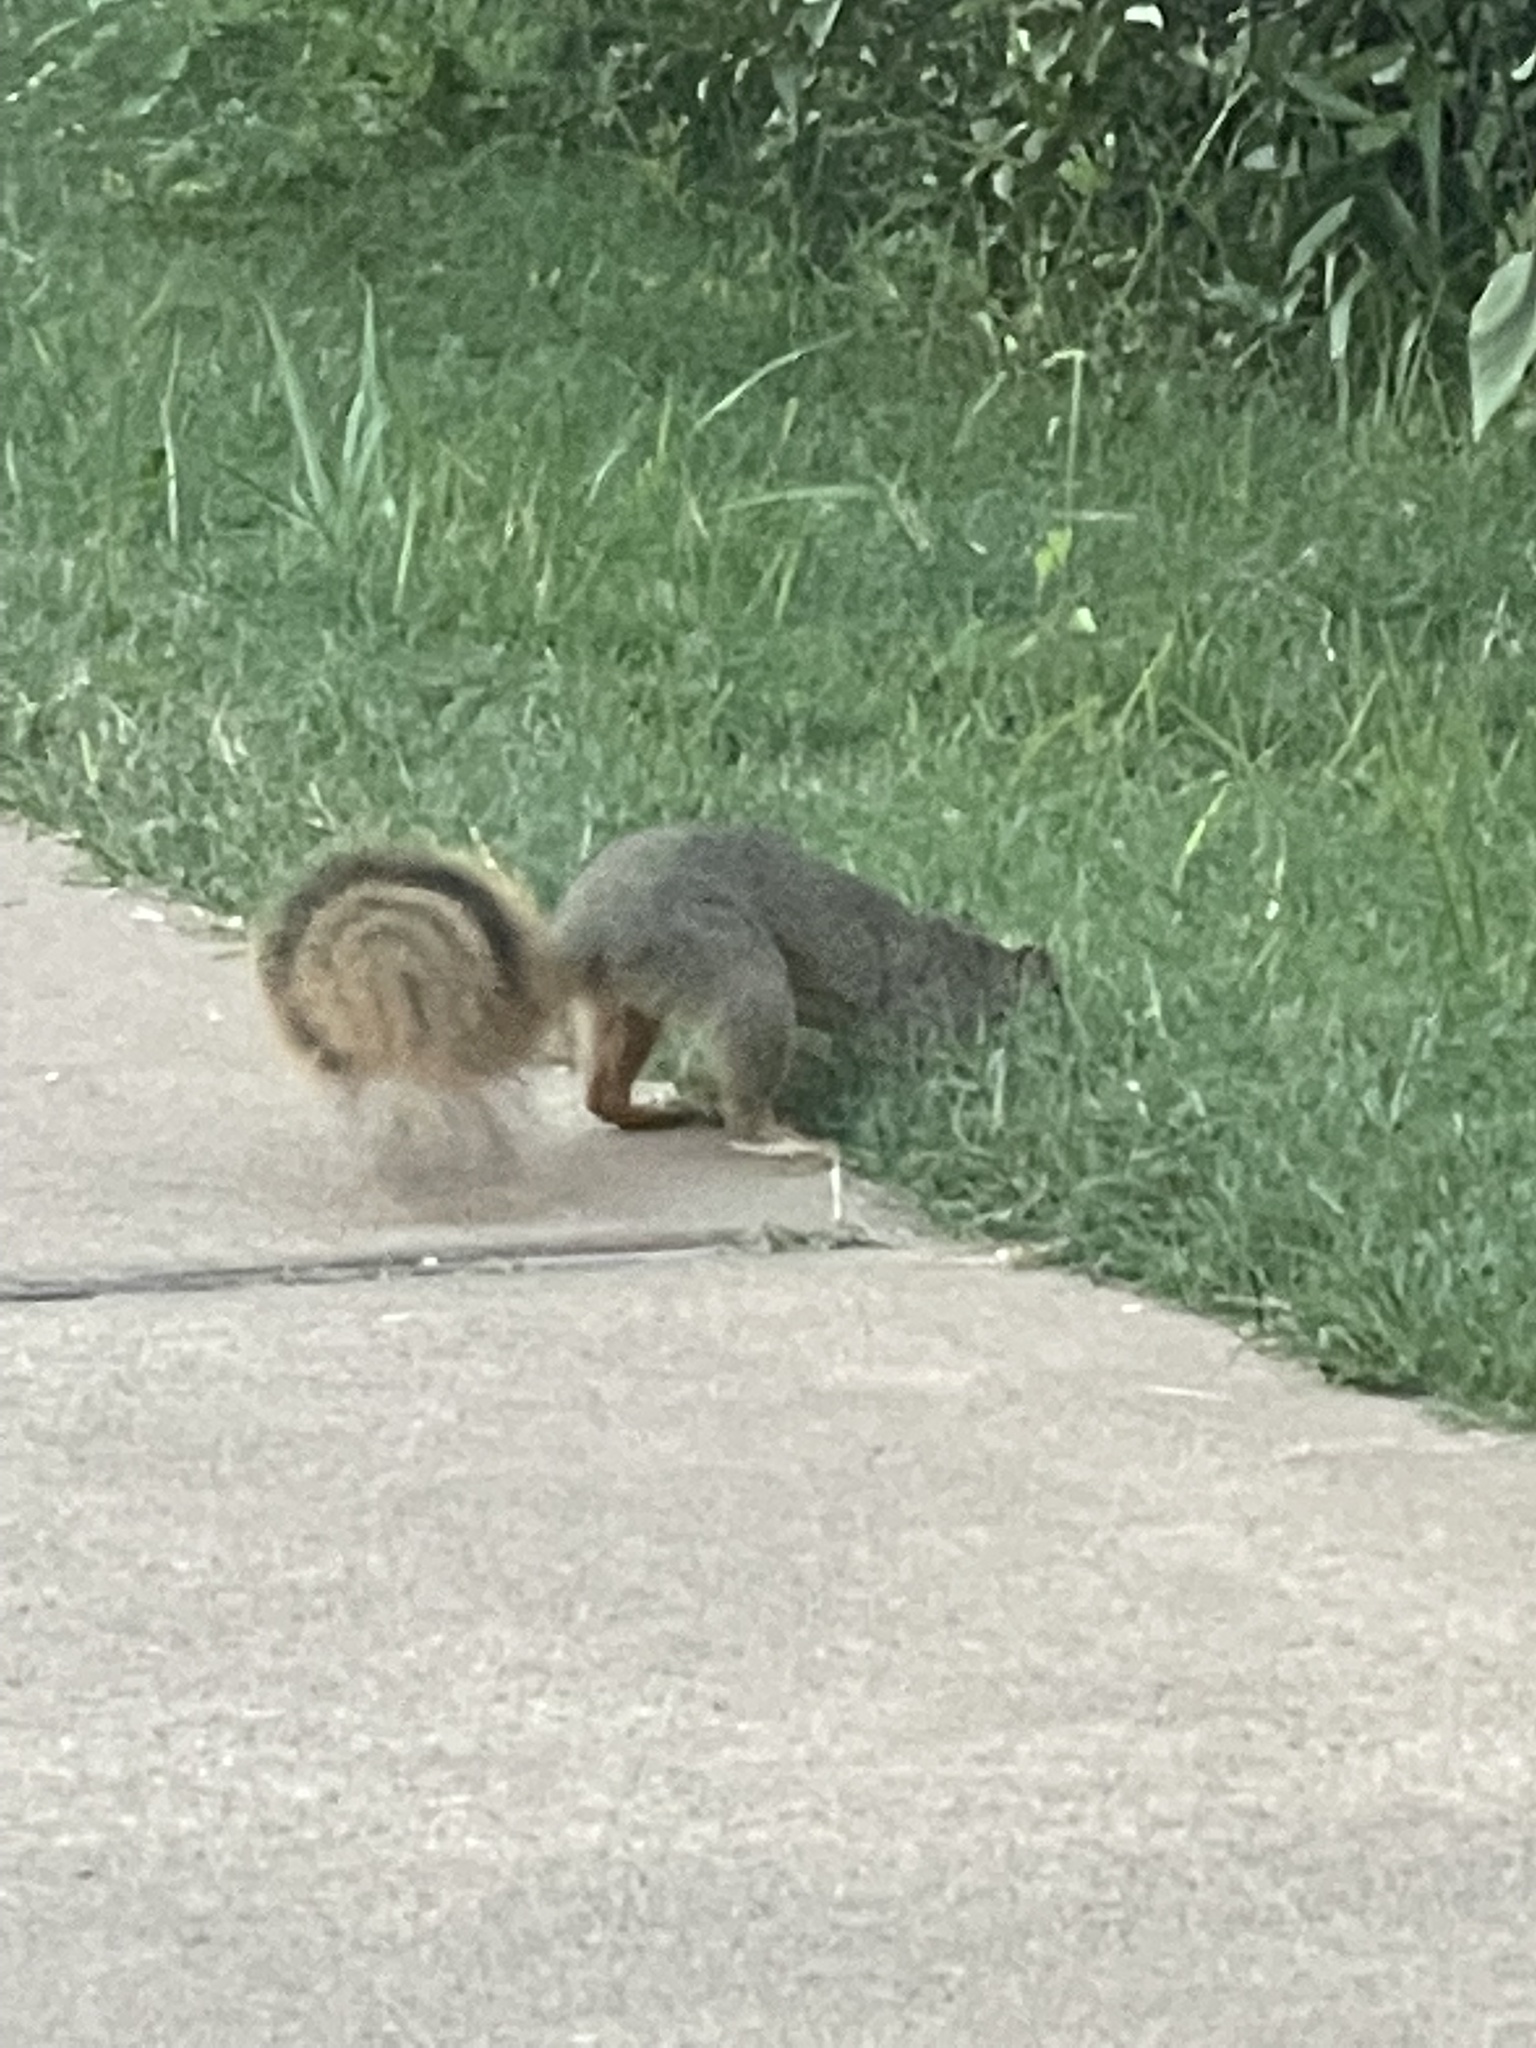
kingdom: Animalia
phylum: Chordata
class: Mammalia
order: Rodentia
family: Sciuridae
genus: Sciurus
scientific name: Sciurus niger
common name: Fox squirrel
